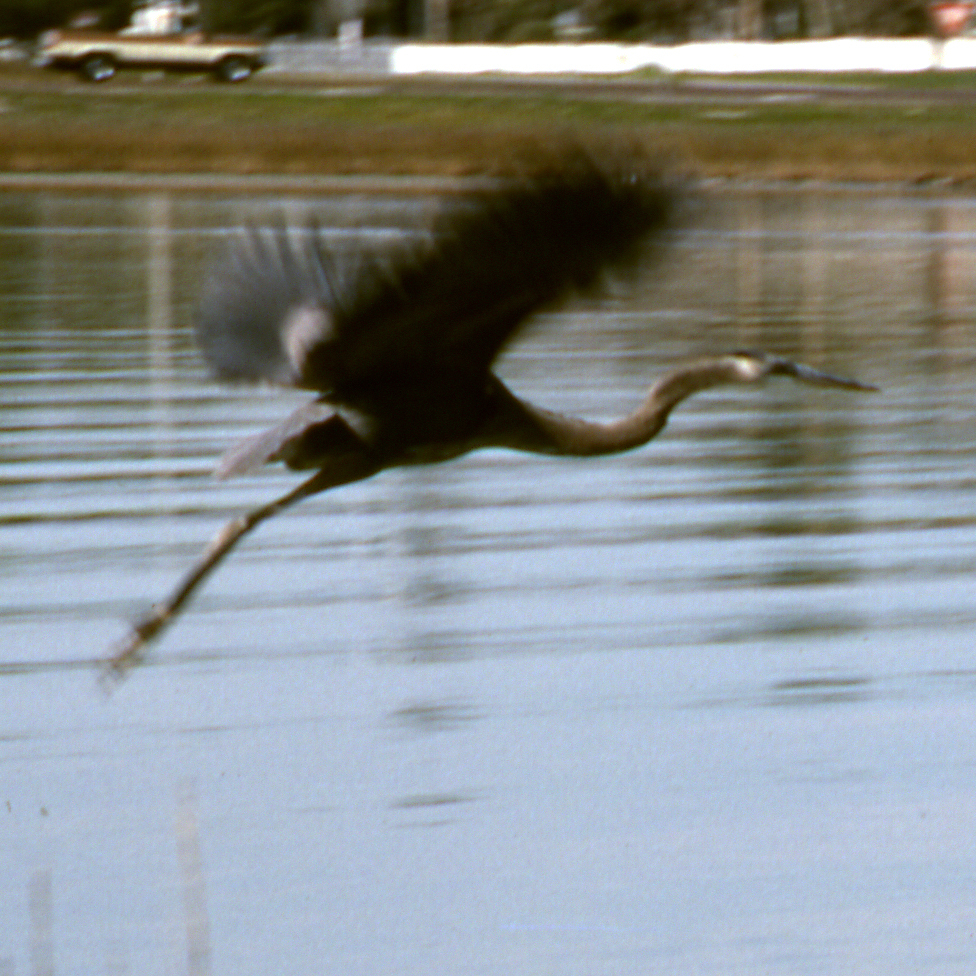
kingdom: Animalia
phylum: Chordata
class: Aves
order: Pelecaniformes
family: Ardeidae
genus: Ardea
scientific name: Ardea herodias
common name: Great blue heron
